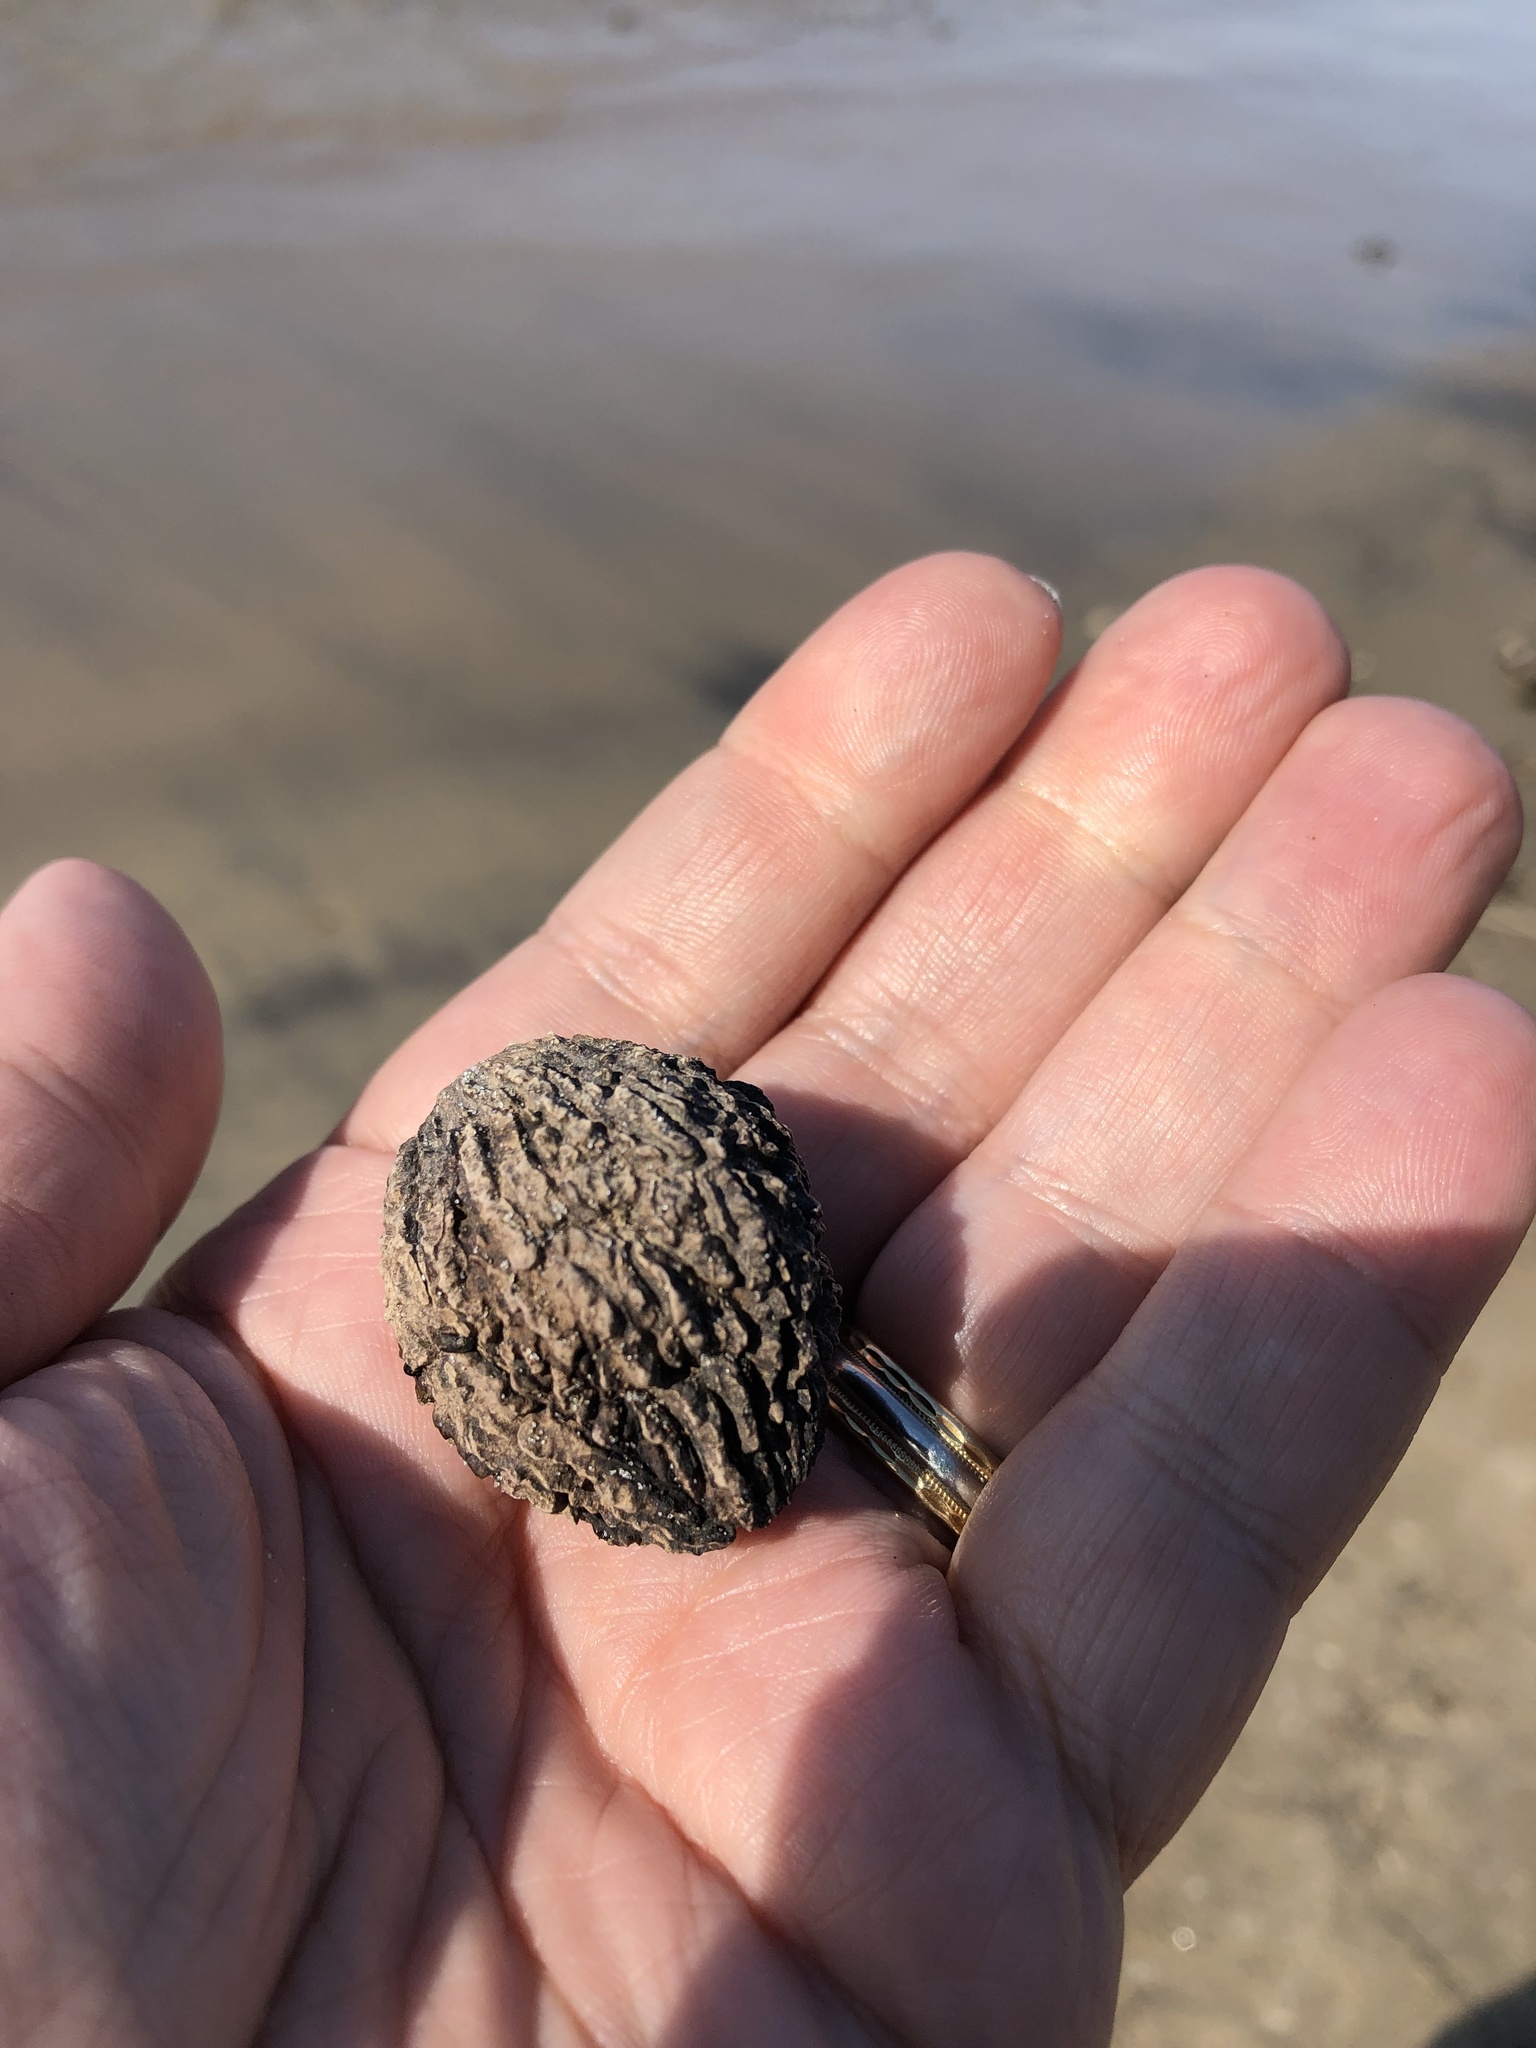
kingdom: Plantae
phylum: Tracheophyta
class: Magnoliopsida
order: Fagales
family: Juglandaceae
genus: Juglans
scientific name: Juglans nigra
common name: Black walnut
